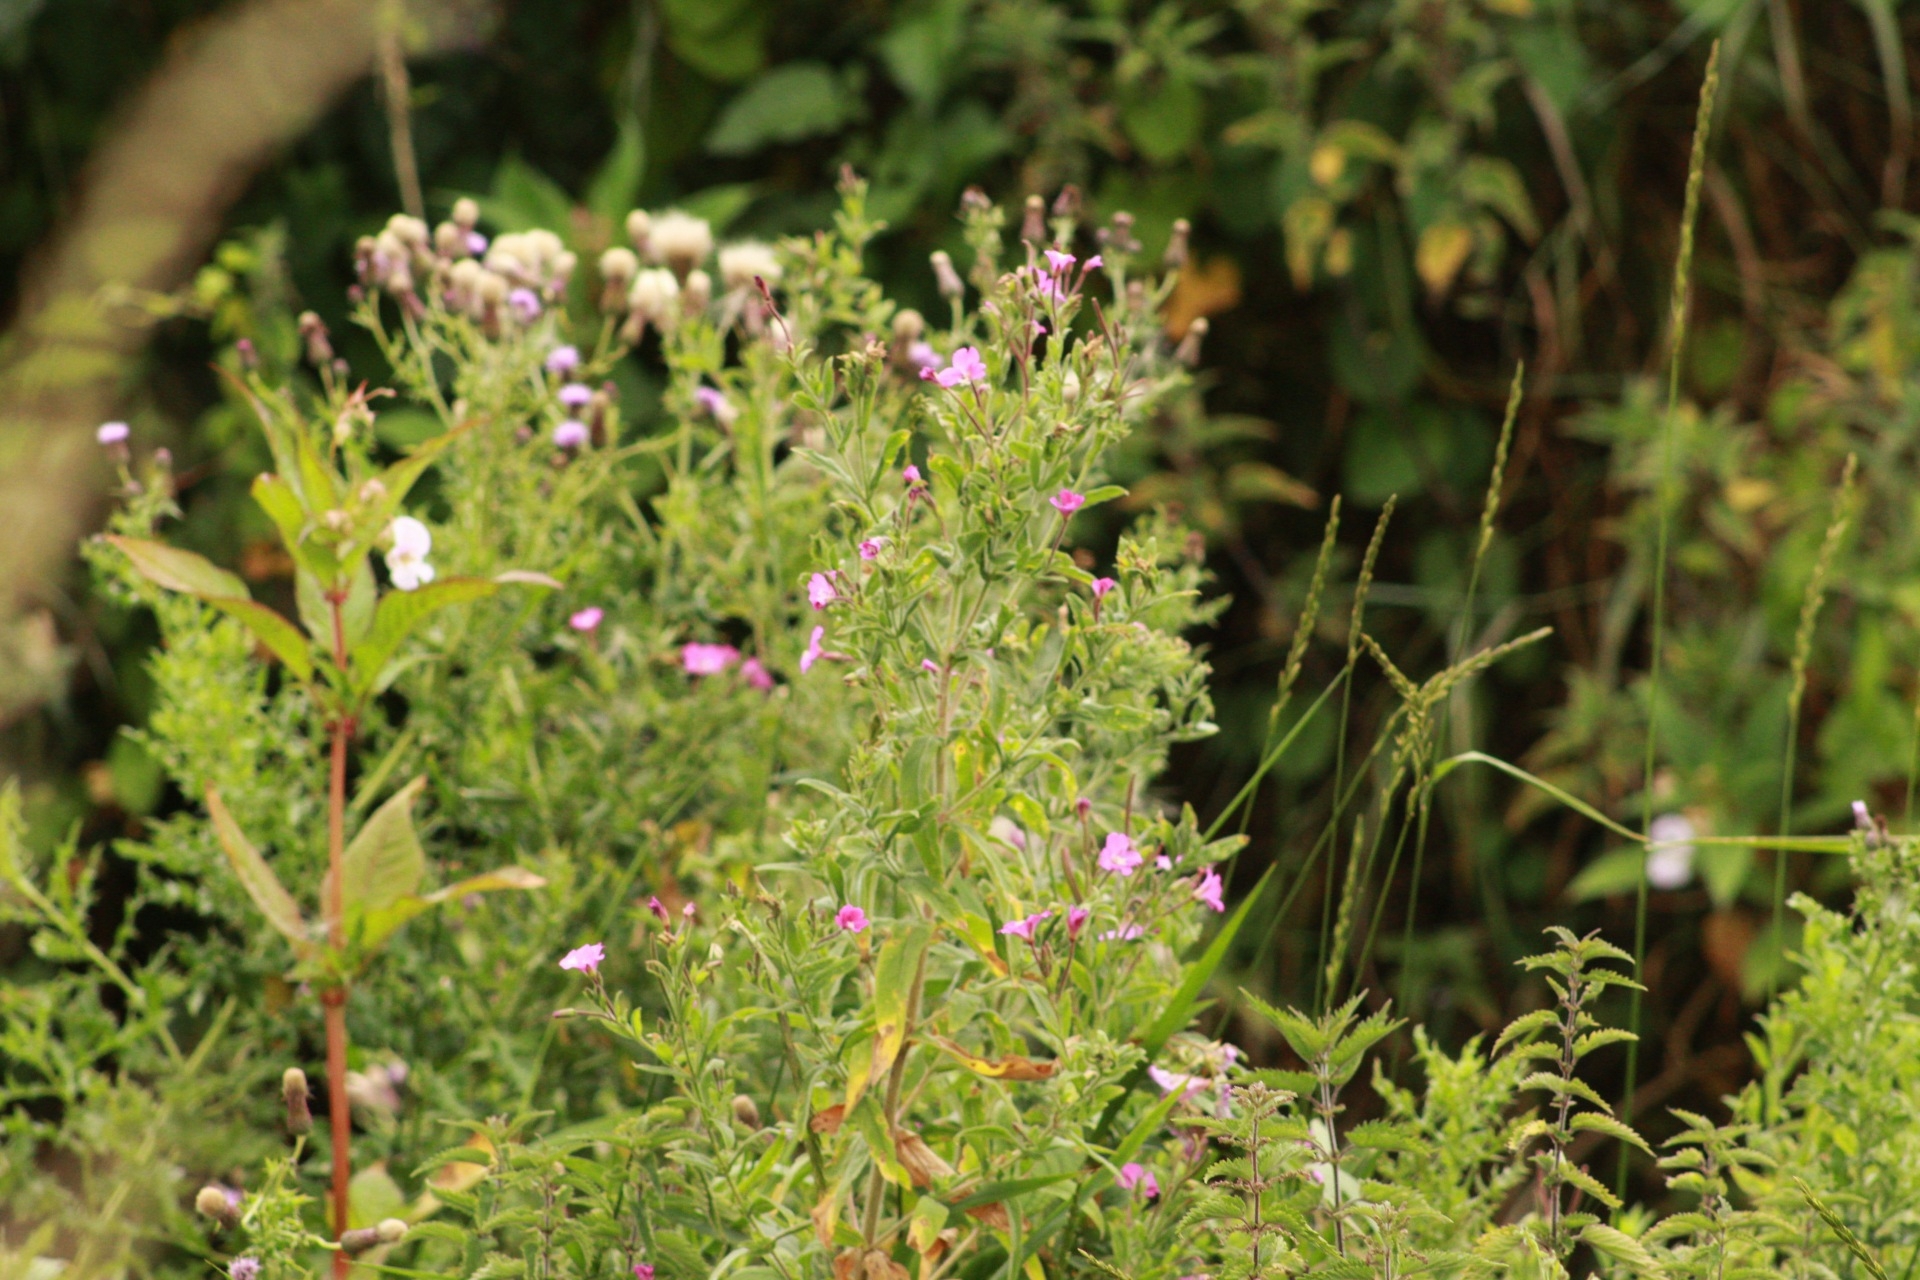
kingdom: Plantae
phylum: Tracheophyta
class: Magnoliopsida
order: Myrtales
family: Onagraceae
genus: Epilobium
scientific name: Epilobium hirsutum
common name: Great willowherb
